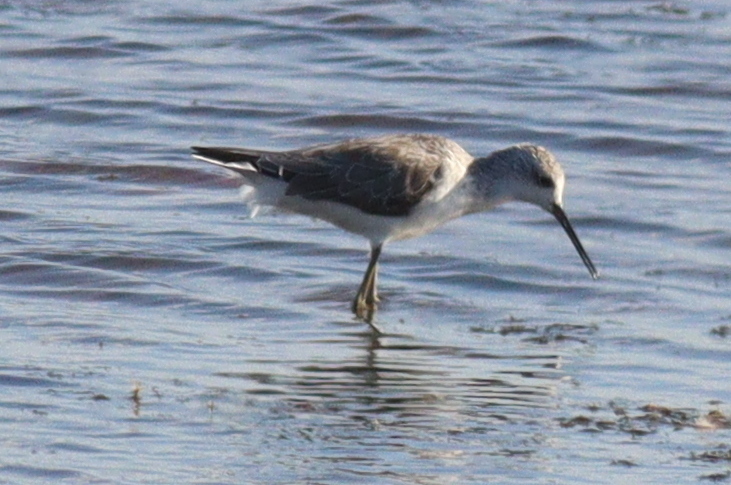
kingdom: Animalia
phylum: Chordata
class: Aves
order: Charadriiformes
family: Scolopacidae
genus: Tringa
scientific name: Tringa stagnatilis
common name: Marsh sandpiper
